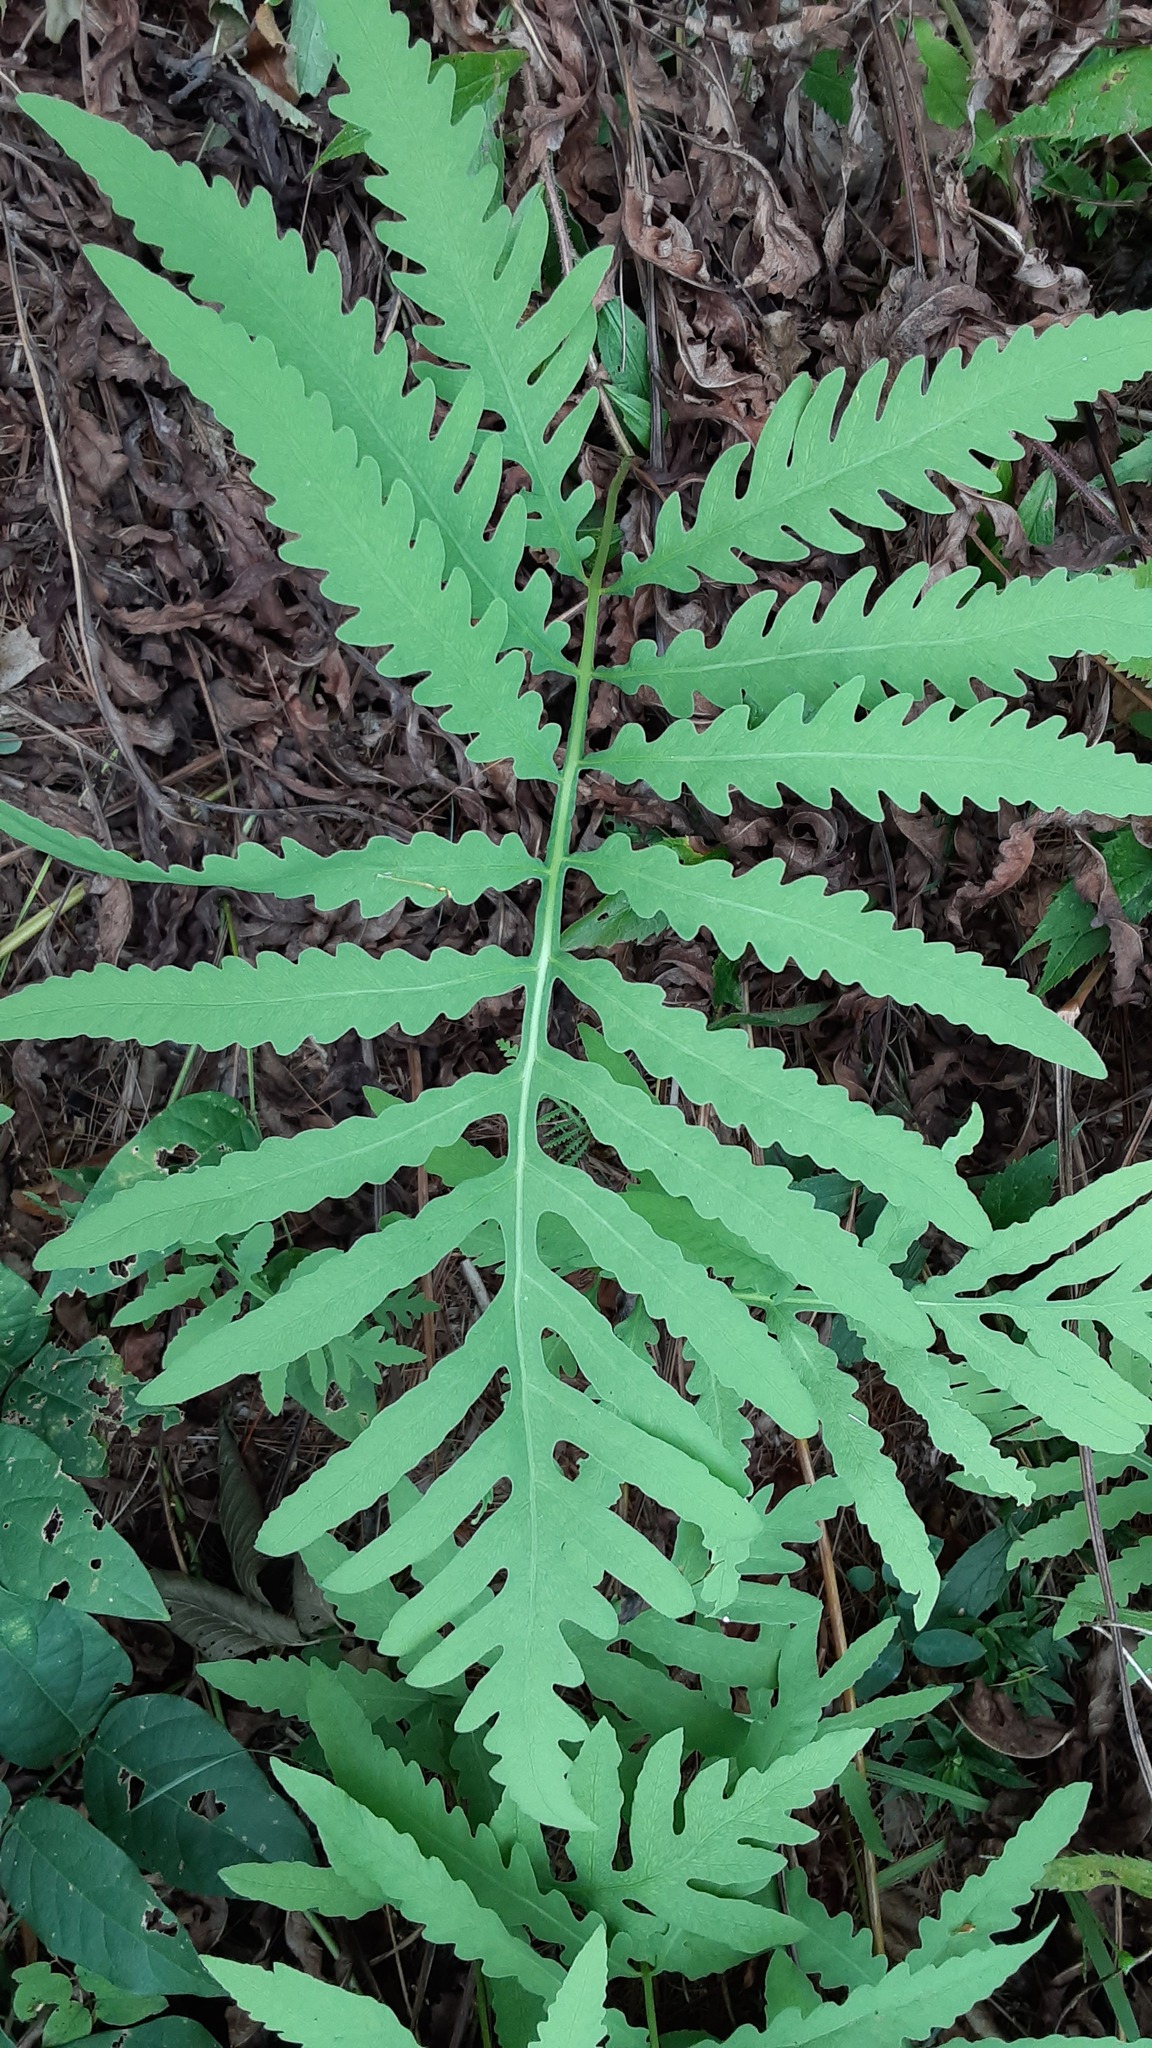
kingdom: Plantae
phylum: Tracheophyta
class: Polypodiopsida
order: Polypodiales
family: Onocleaceae
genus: Onoclea
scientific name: Onoclea sensibilis
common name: Sensitive fern
